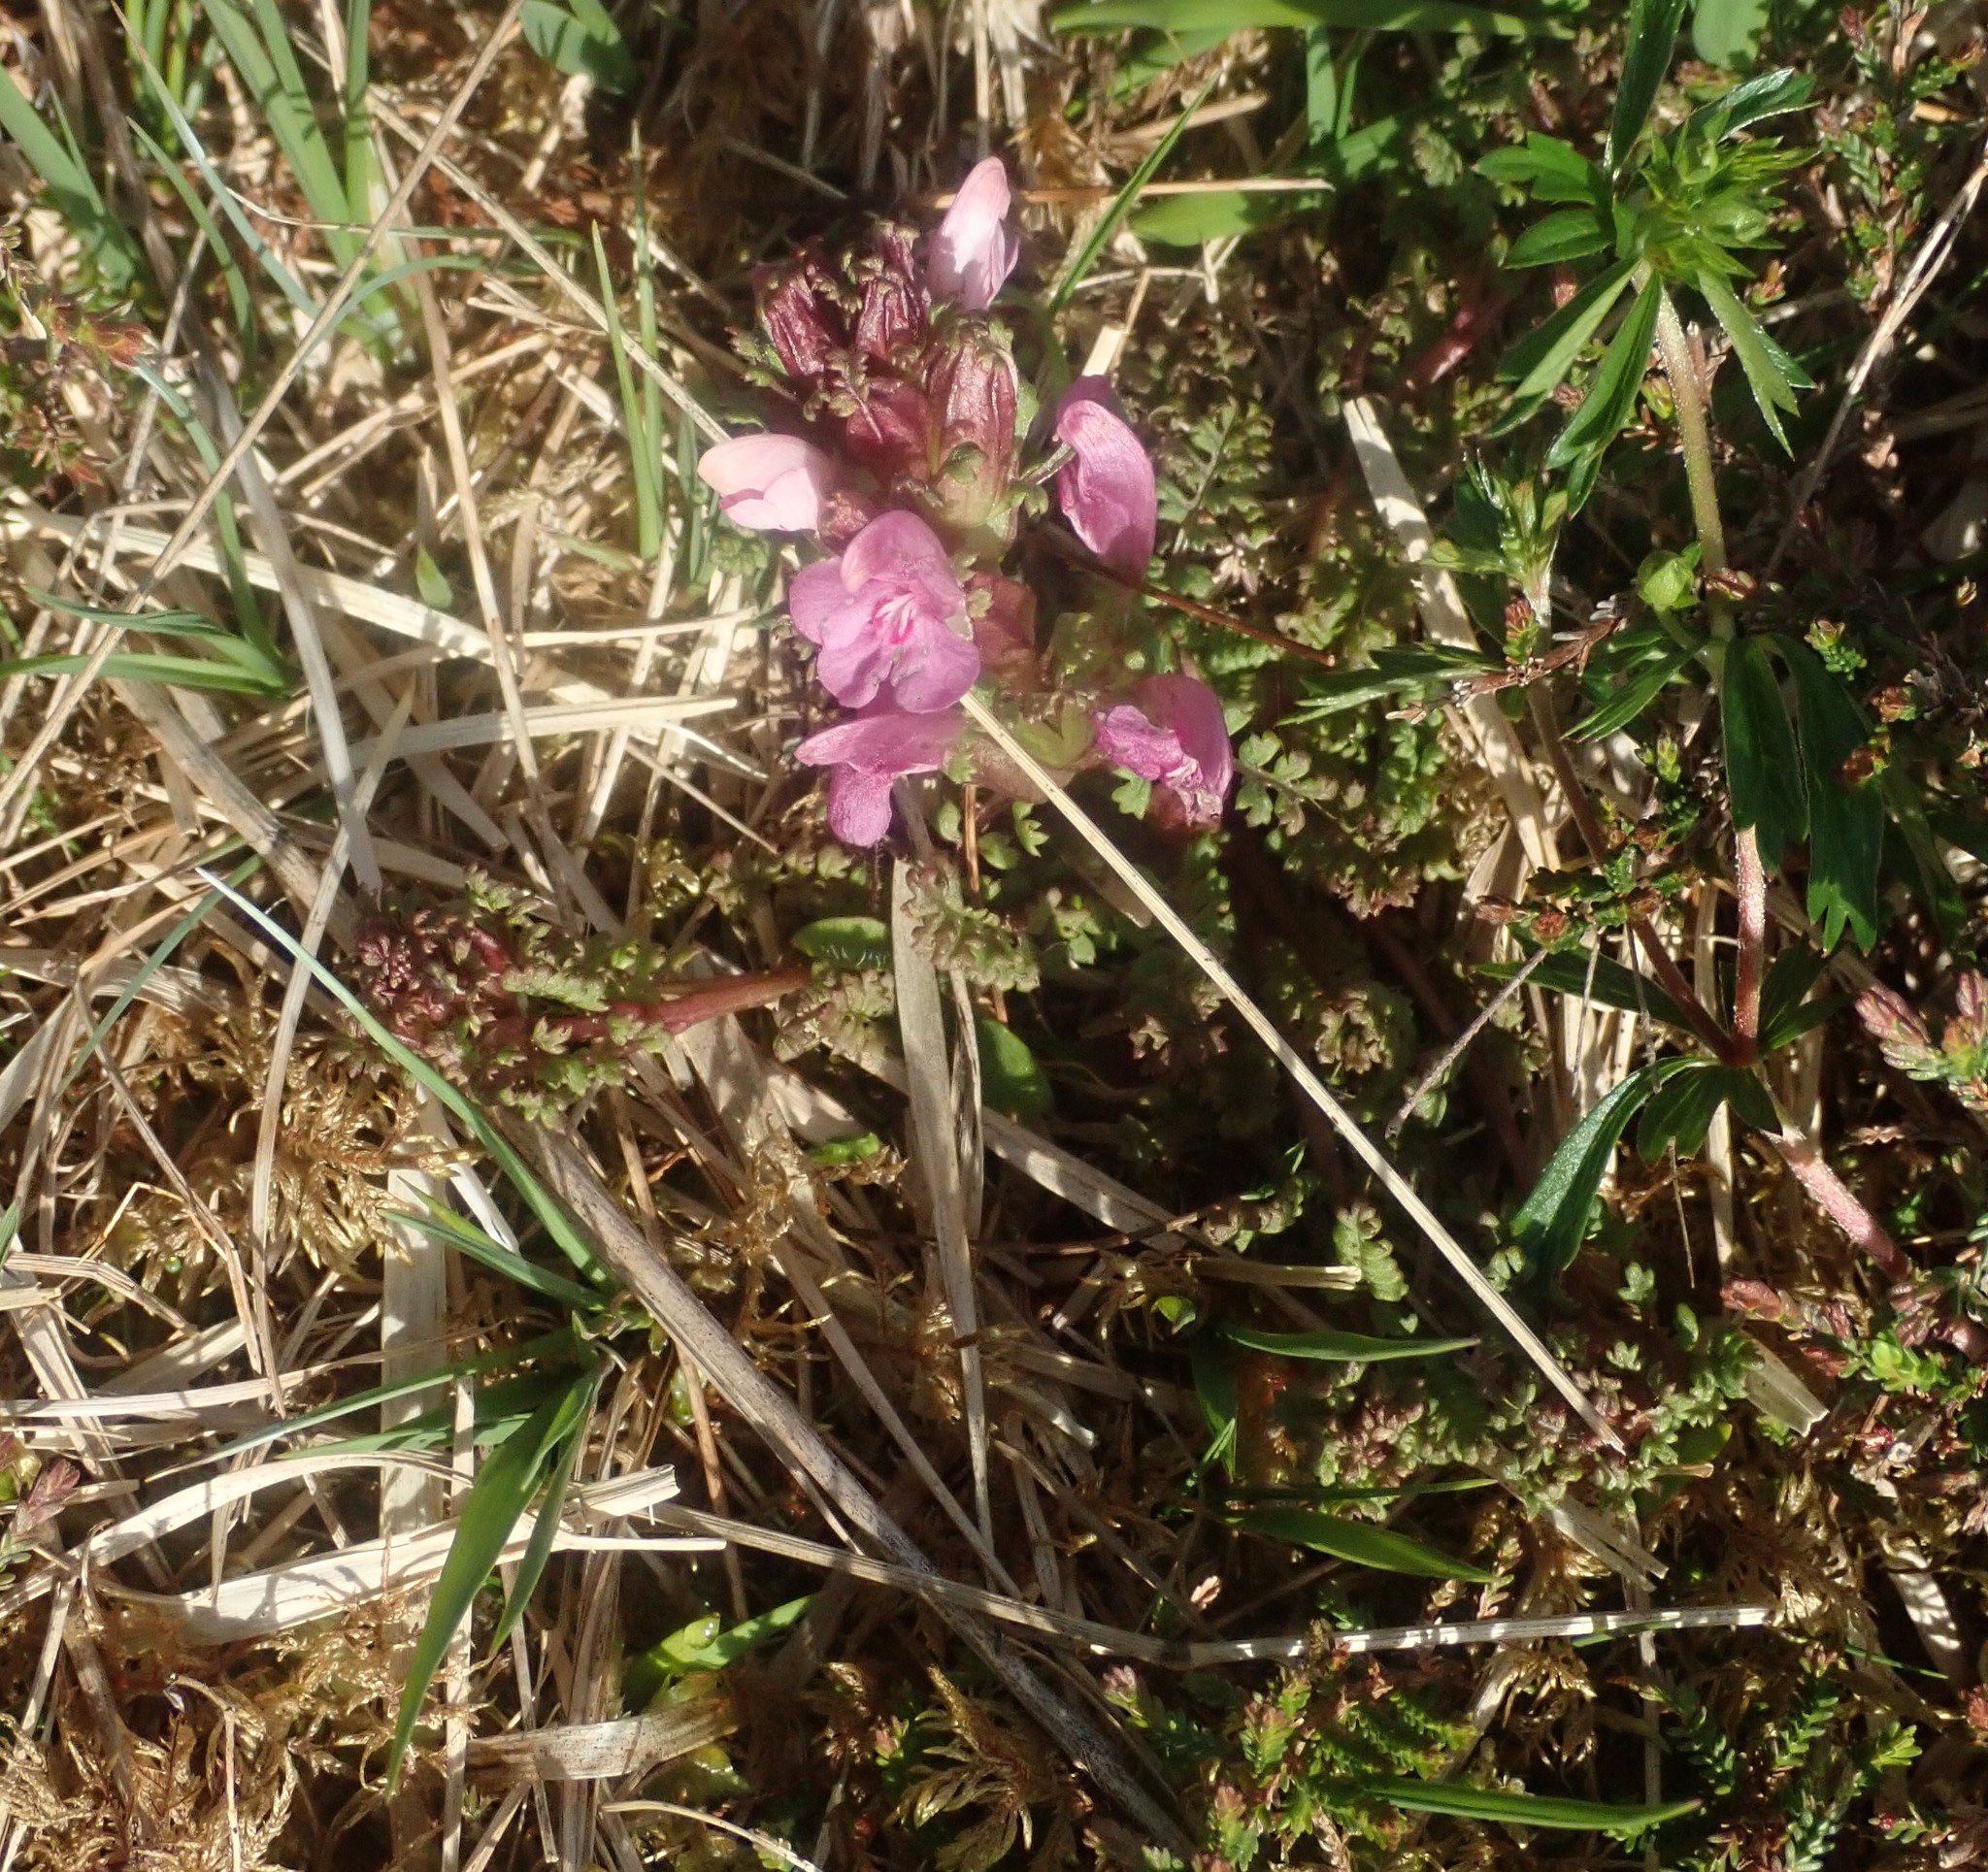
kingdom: Plantae
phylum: Tracheophyta
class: Magnoliopsida
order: Lamiales
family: Orobanchaceae
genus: Pedicularis
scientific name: Pedicularis sylvatica
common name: Lousewort
